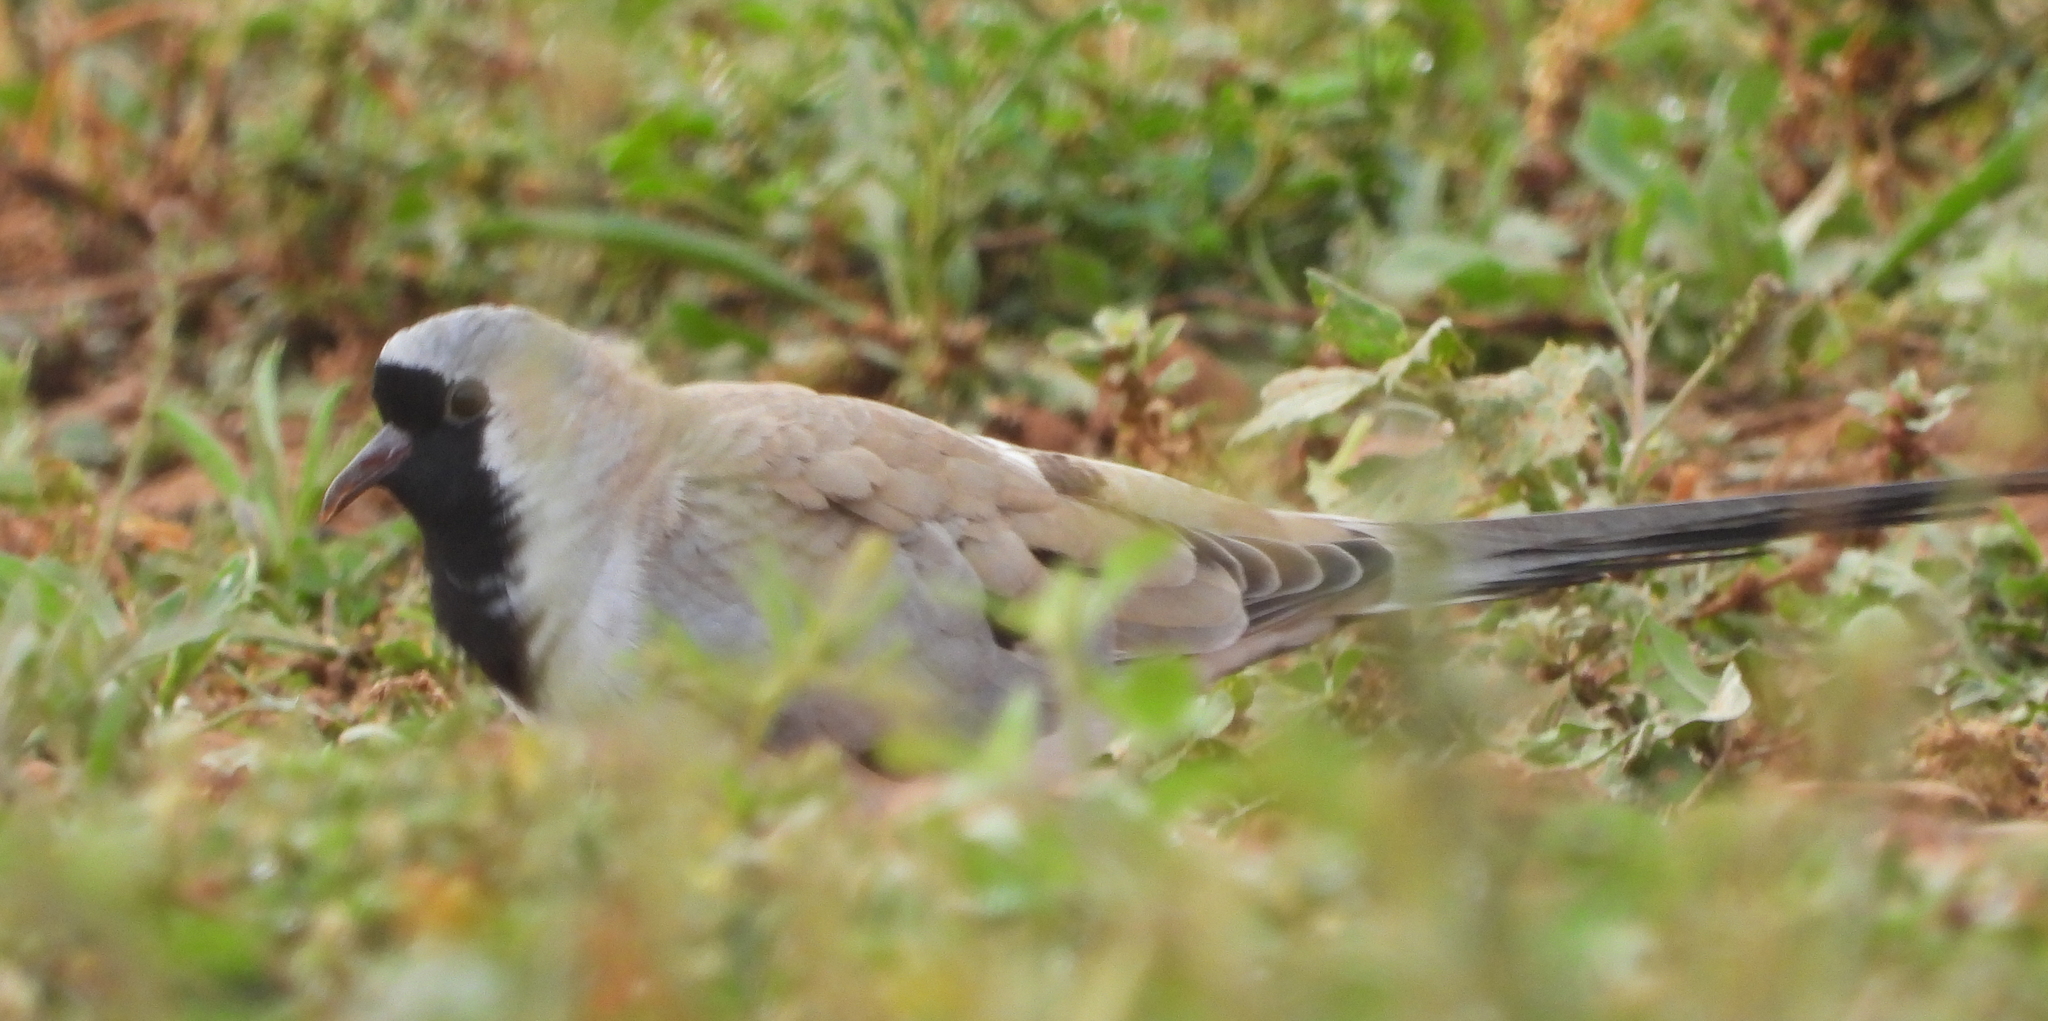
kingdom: Animalia
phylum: Chordata
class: Aves
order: Columbiformes
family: Columbidae
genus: Oena
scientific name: Oena capensis
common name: Namaqua dove
